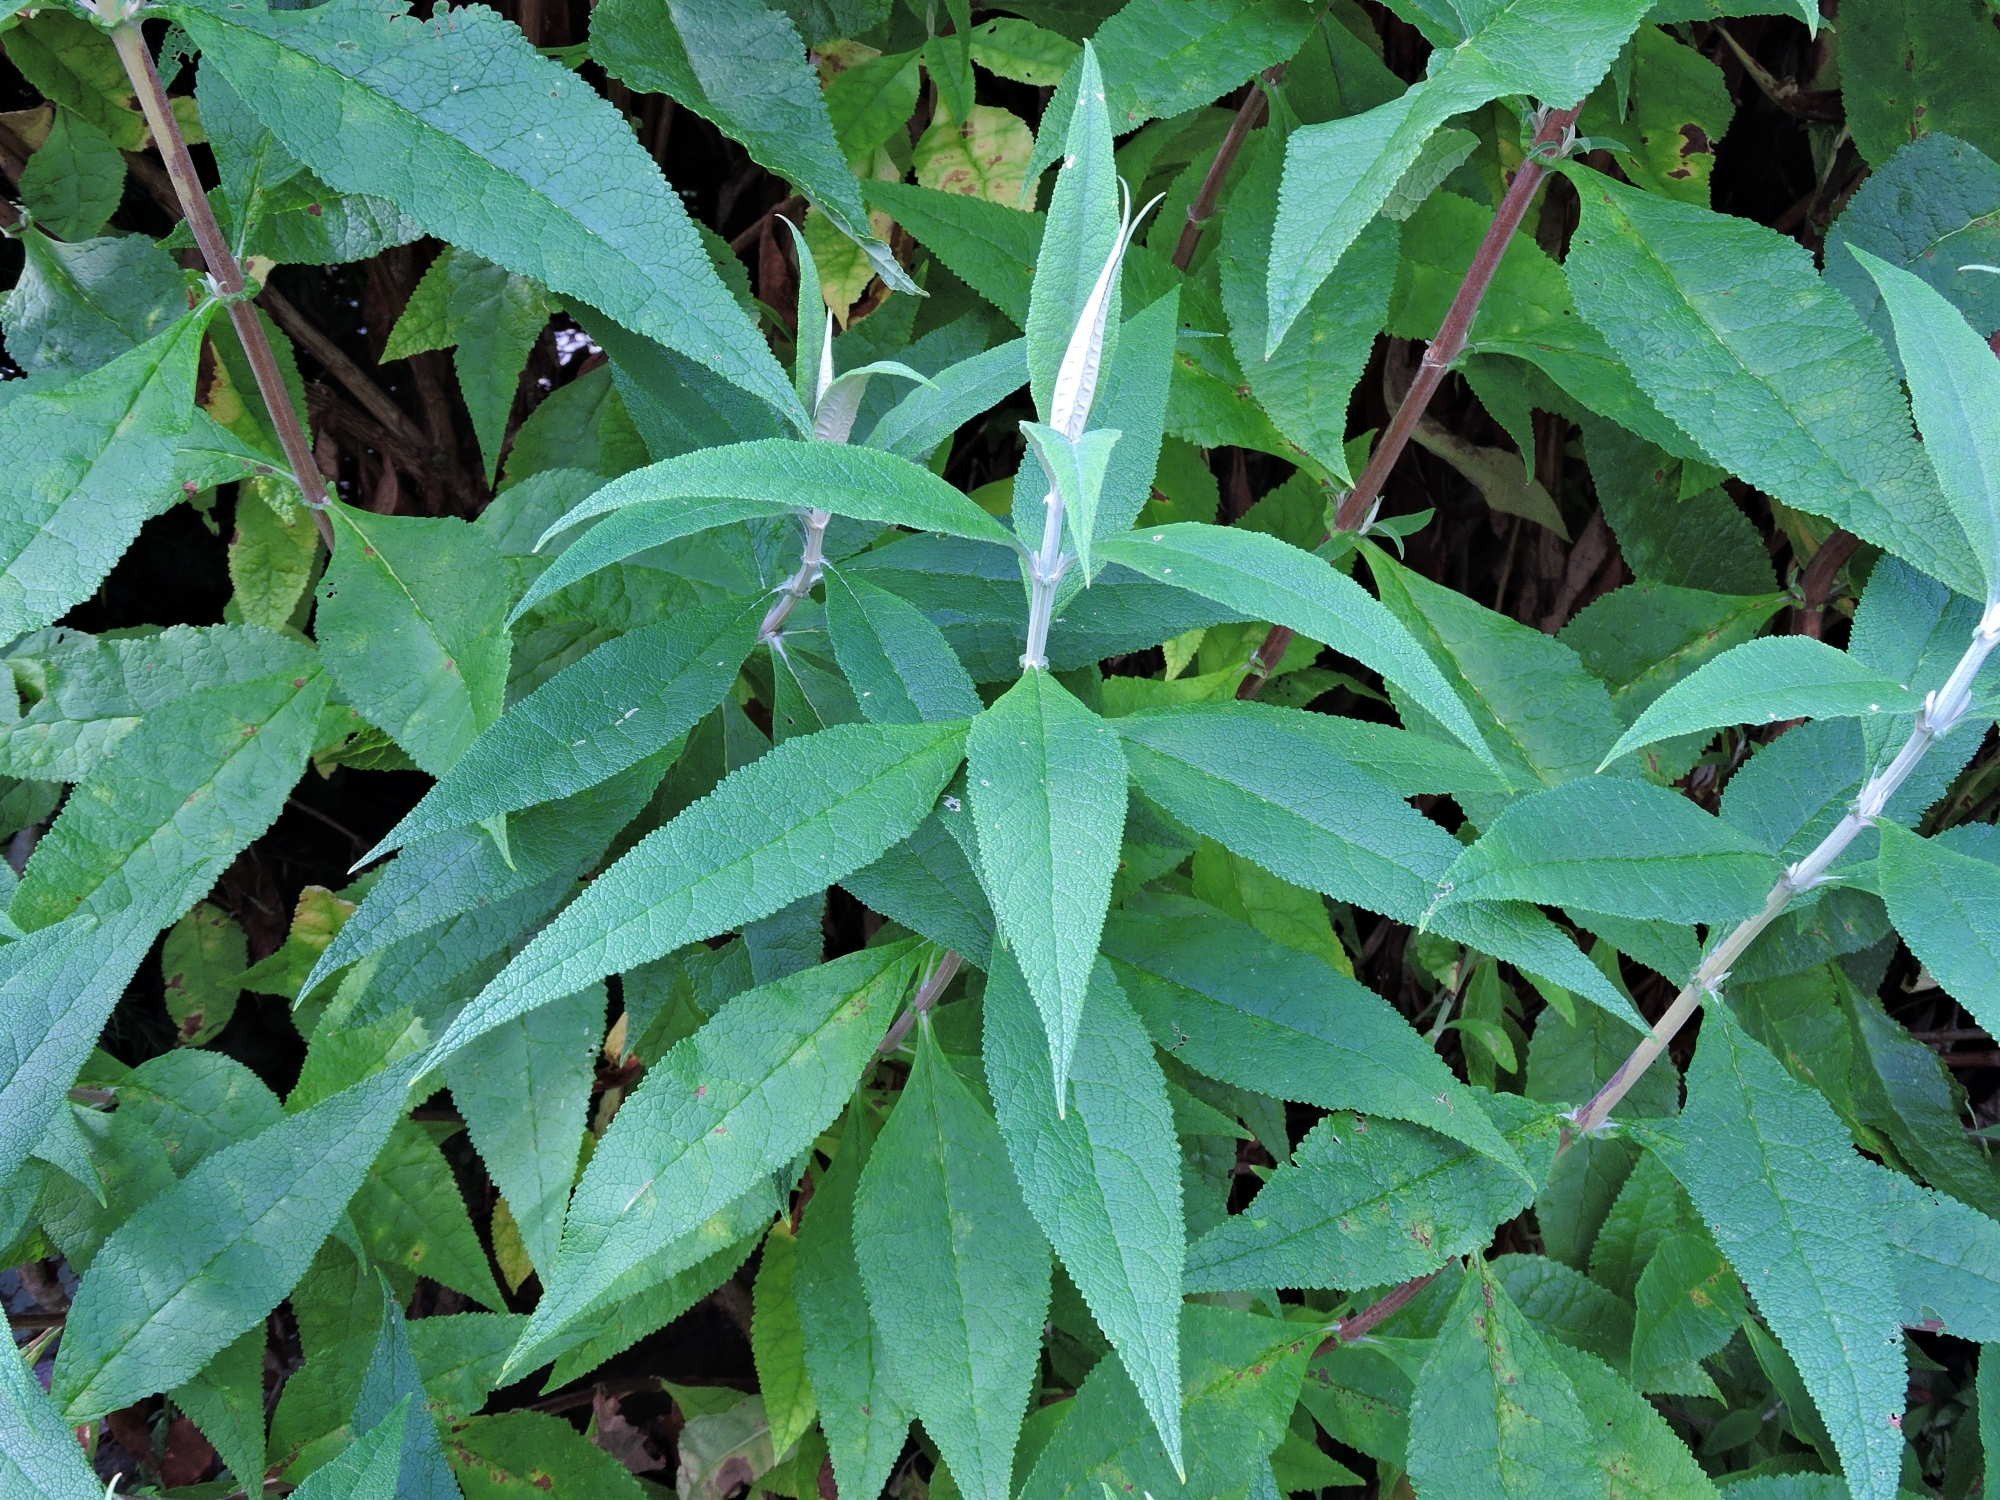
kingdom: Plantae
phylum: Tracheophyta
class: Magnoliopsida
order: Lamiales
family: Scrophulariaceae
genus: Buddleja
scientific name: Buddleja globosa
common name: Orange-ball-tree
